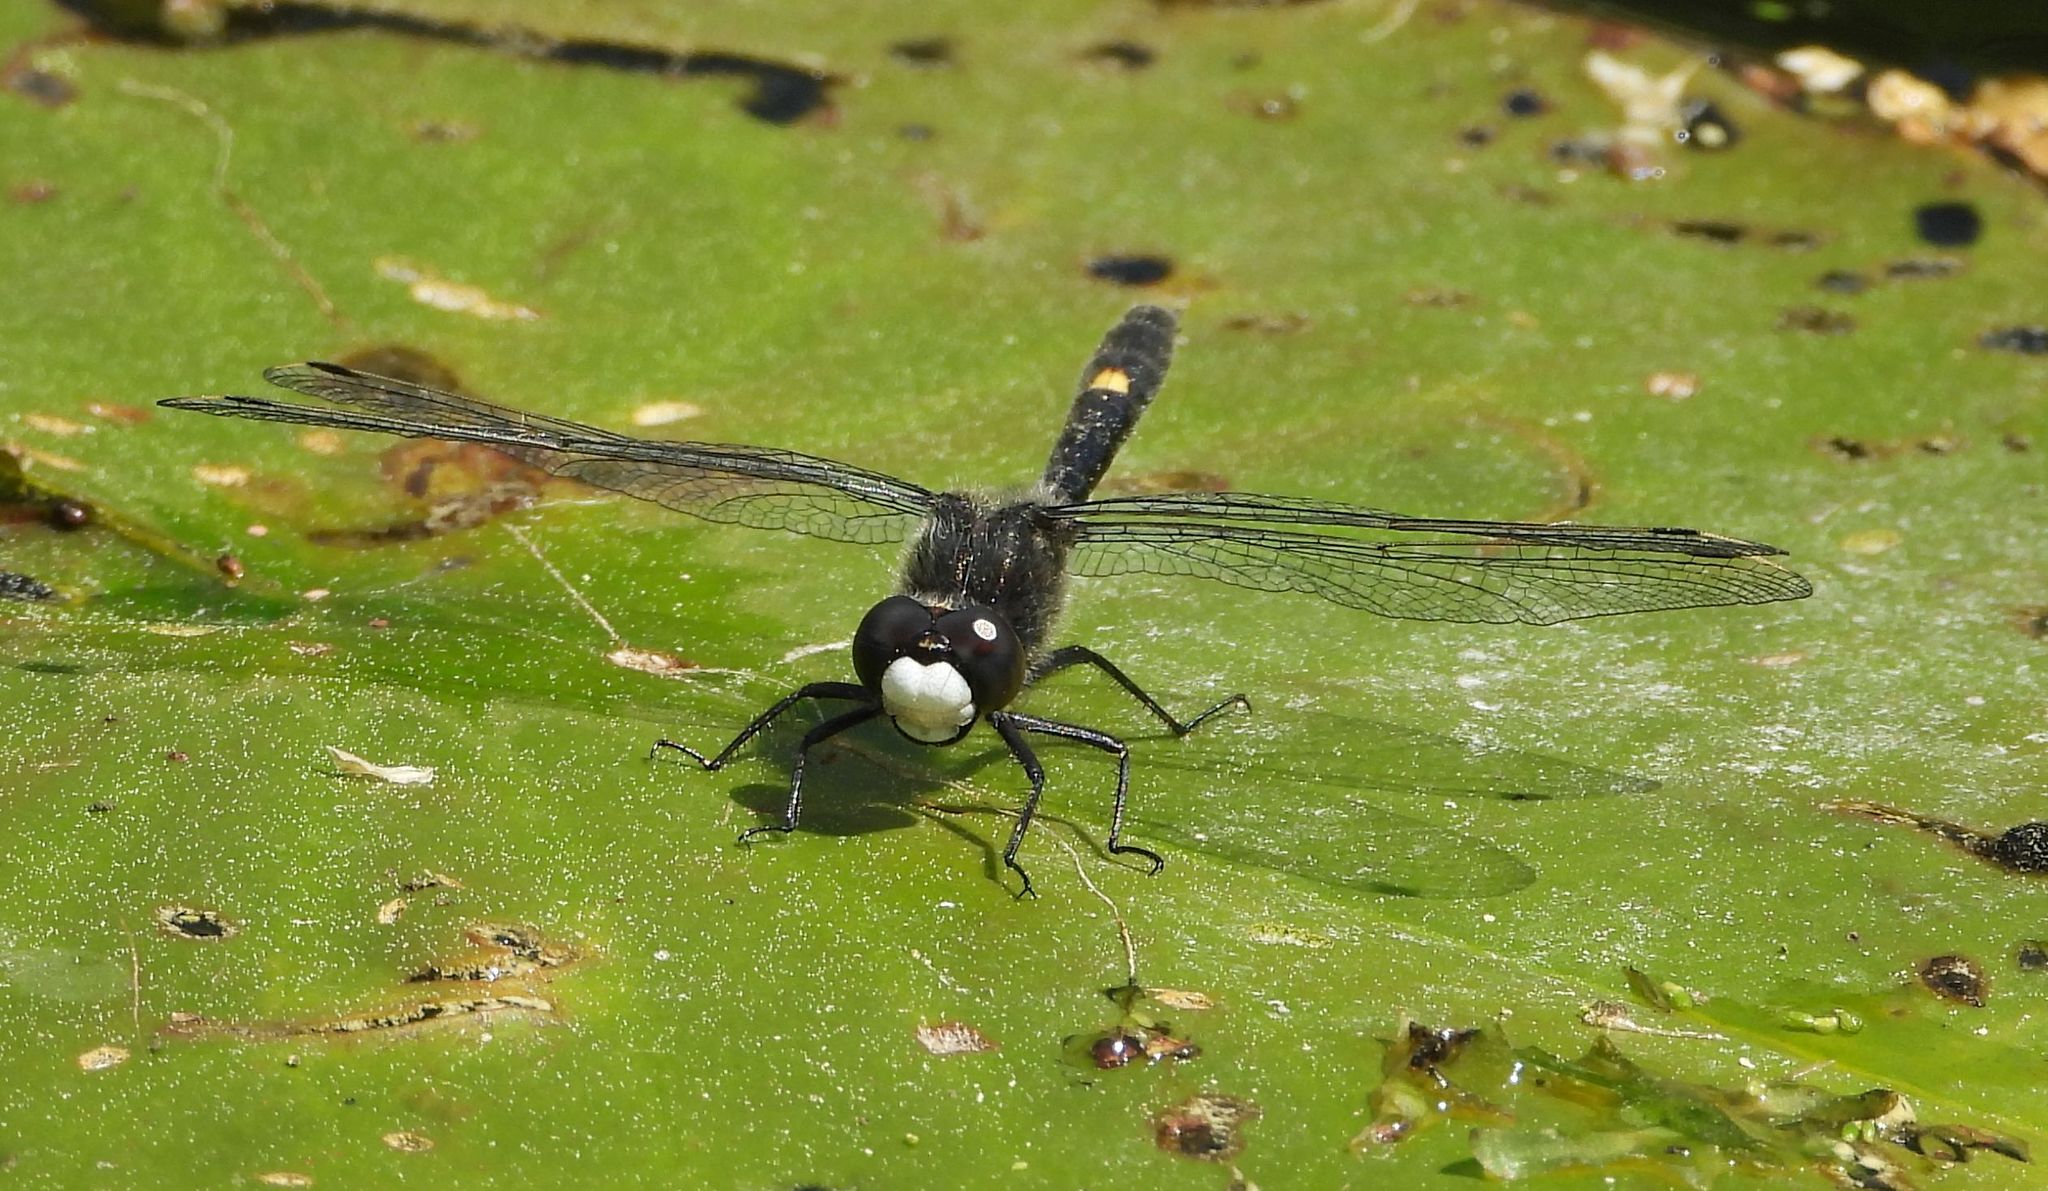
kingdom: Animalia
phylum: Arthropoda
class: Insecta
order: Odonata
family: Libellulidae
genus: Leucorrhinia
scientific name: Leucorrhinia intacta
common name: Dot-tailed whiteface
